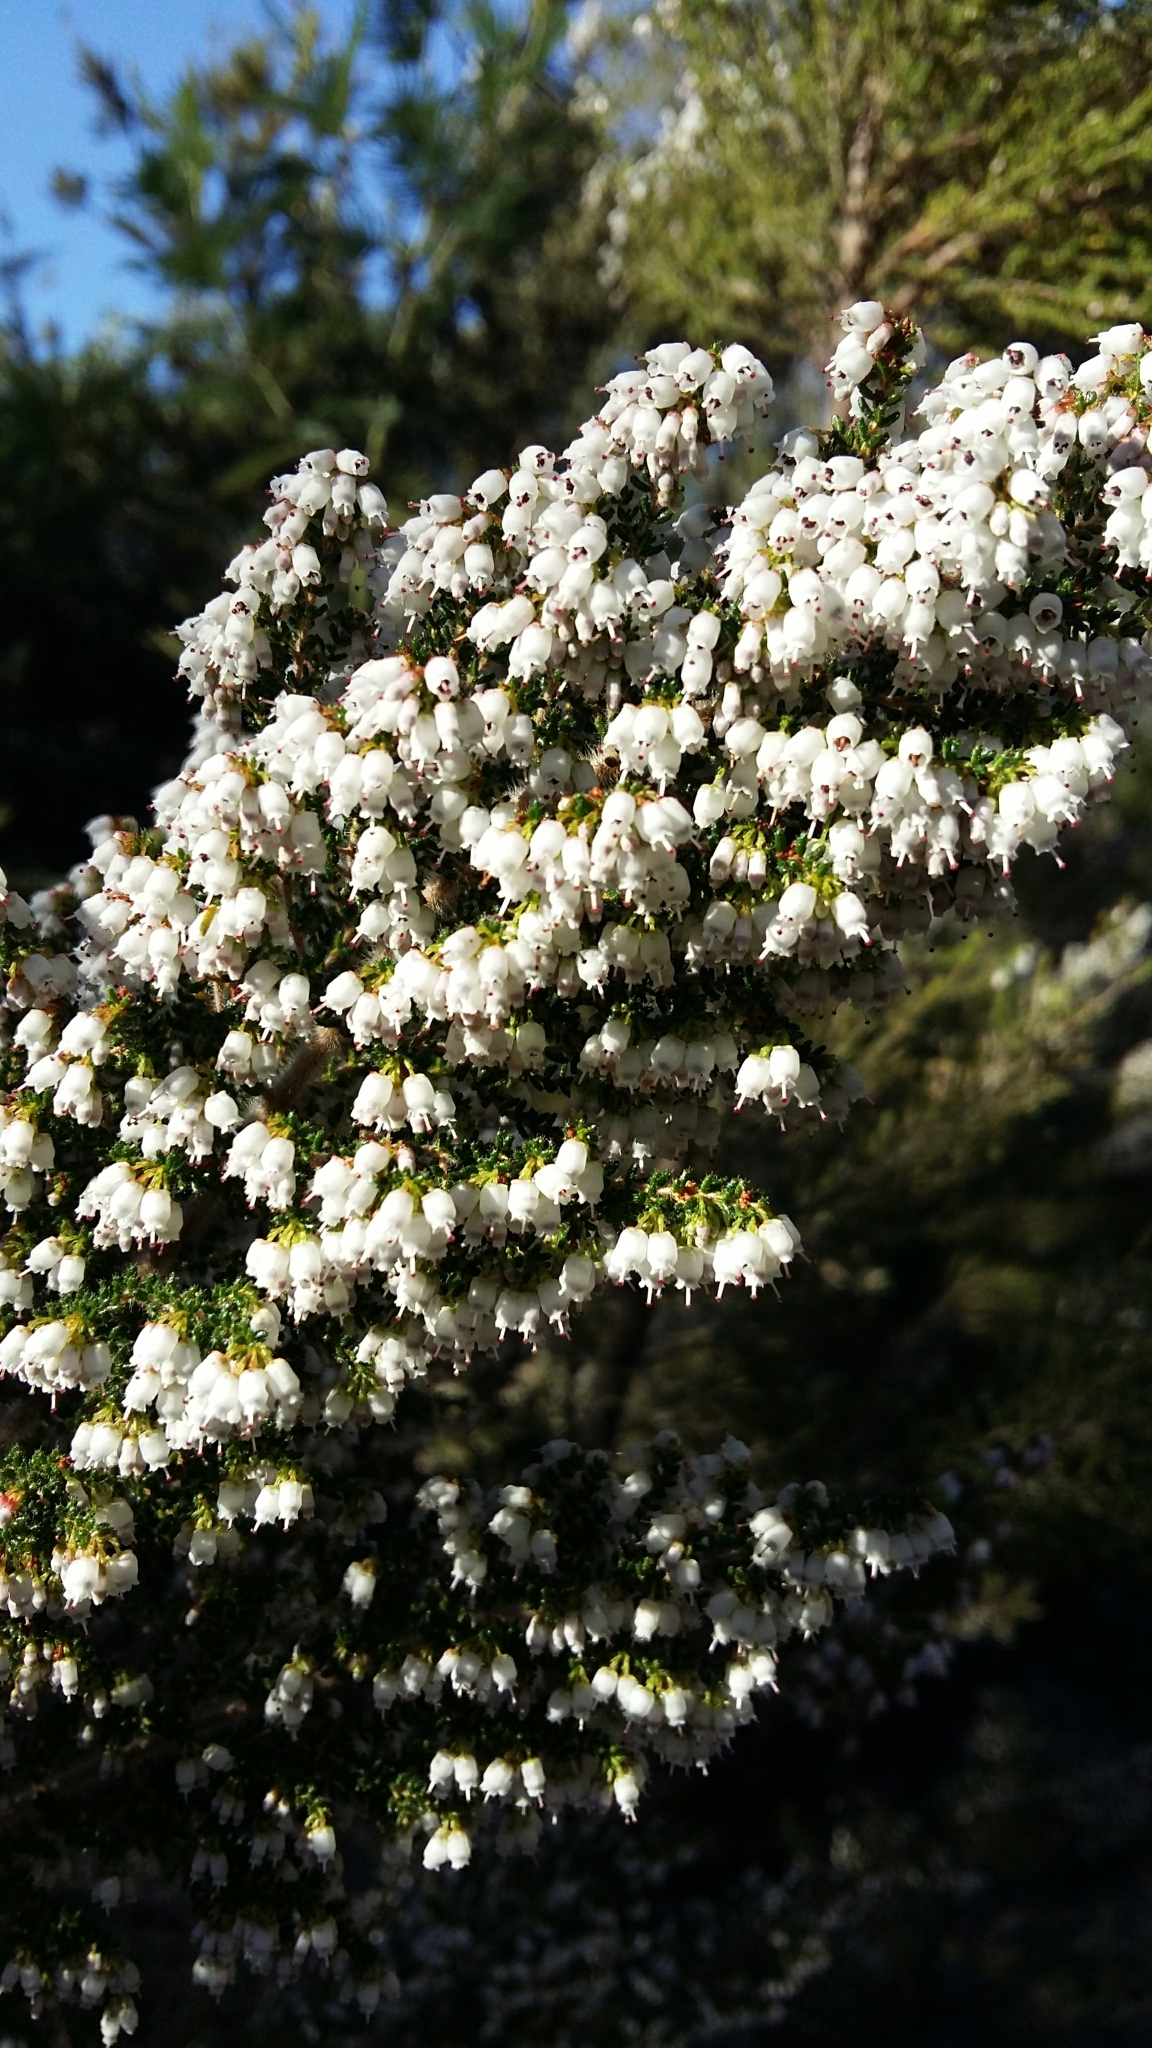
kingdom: Plantae
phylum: Tracheophyta
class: Magnoliopsida
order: Ericales
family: Ericaceae
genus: Erica
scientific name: Erica scabriuscula
